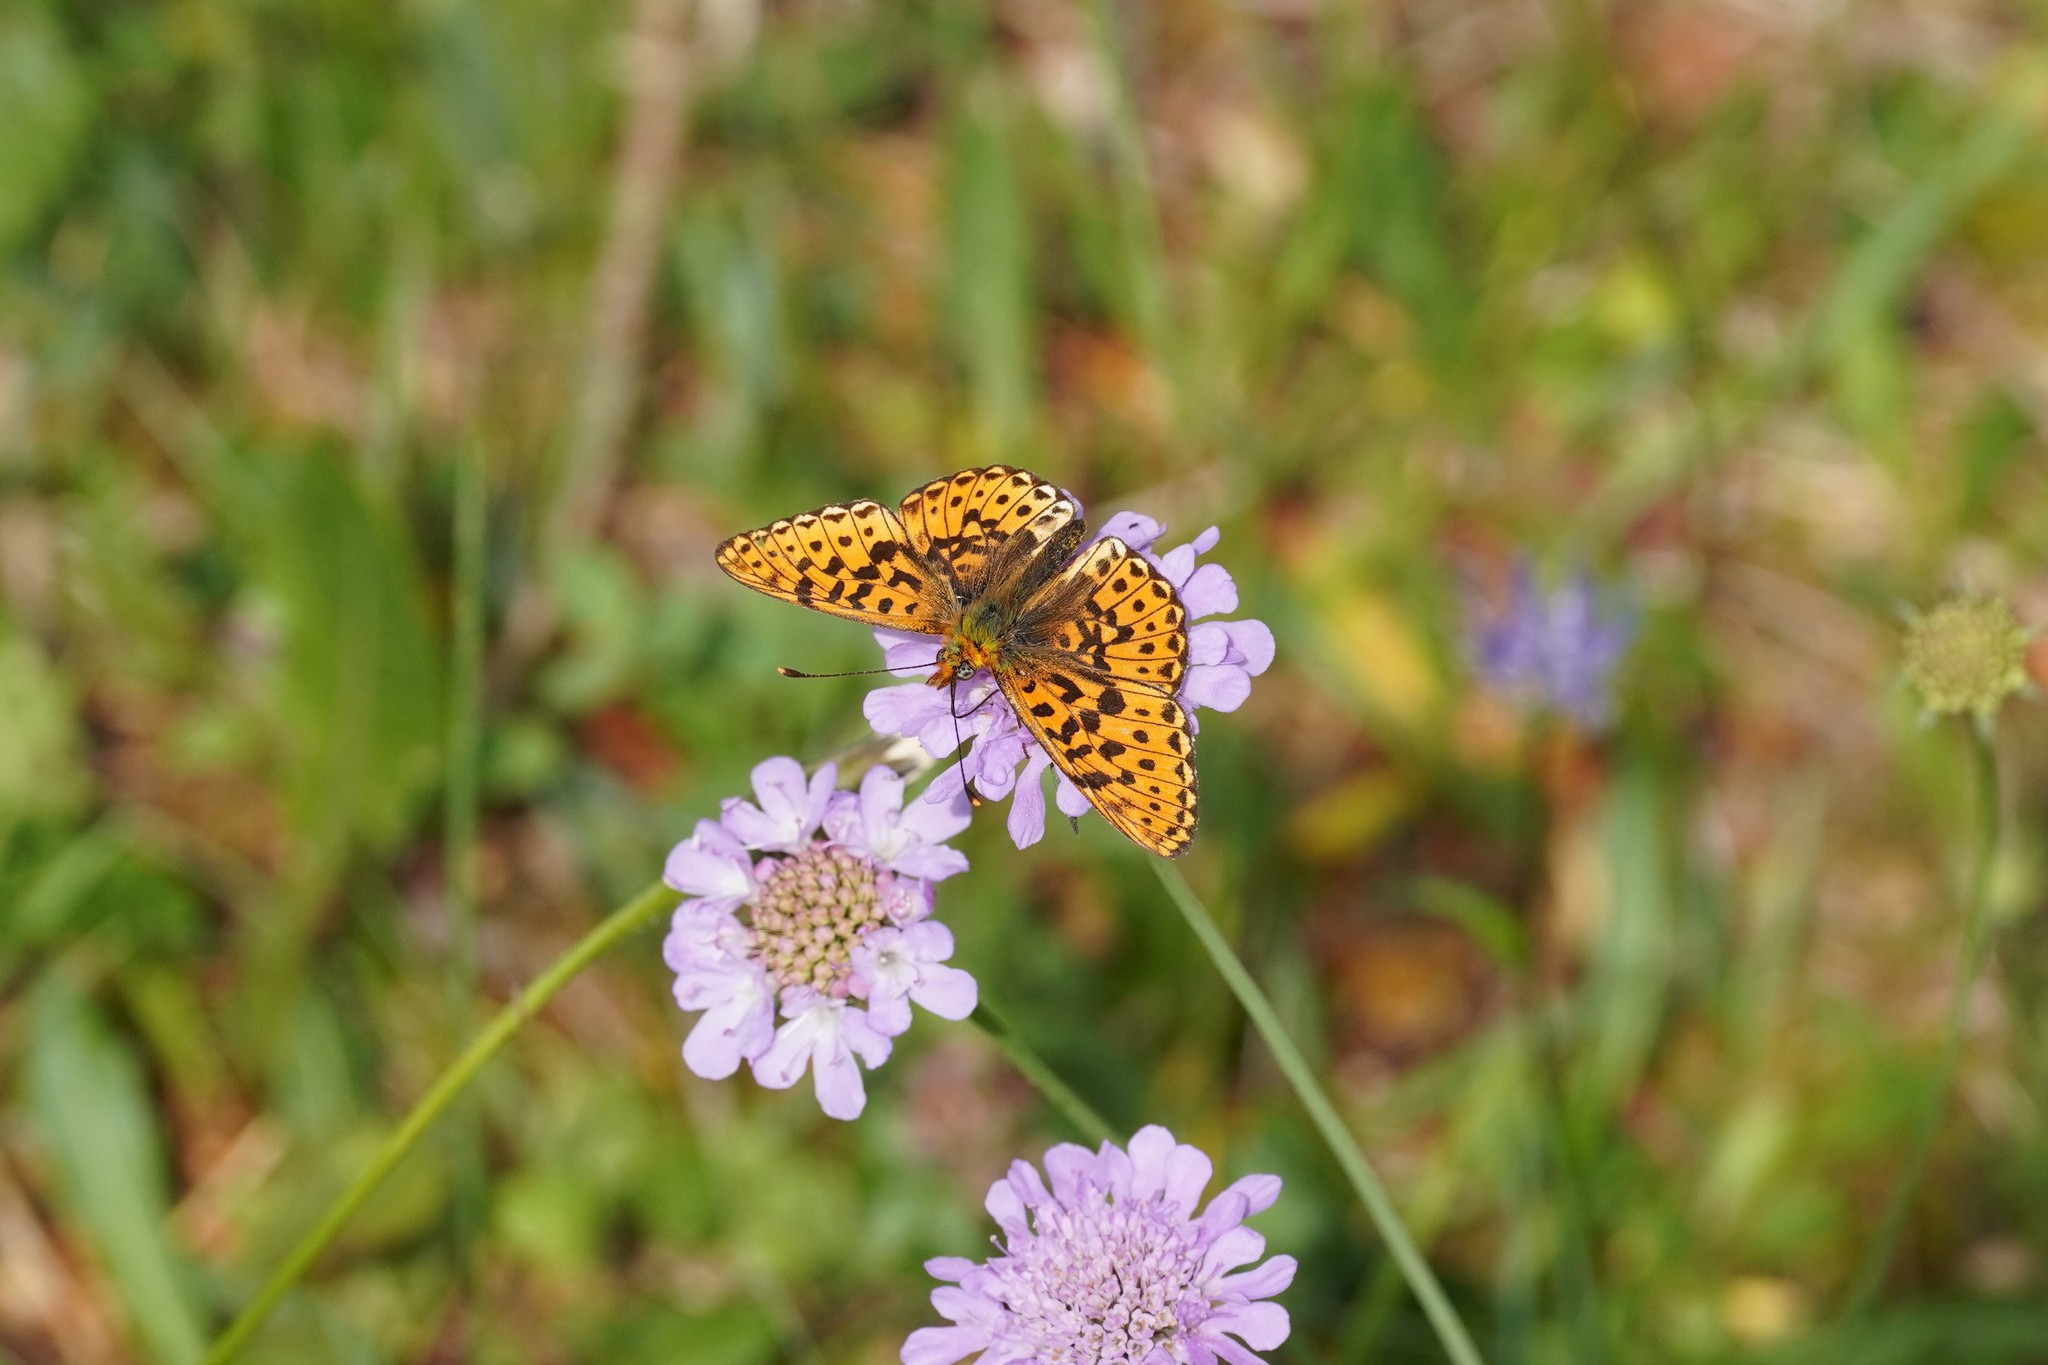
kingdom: Animalia
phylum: Arthropoda
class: Insecta
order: Lepidoptera
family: Nymphalidae
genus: Clossiana
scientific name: Clossiana euphrosyne
